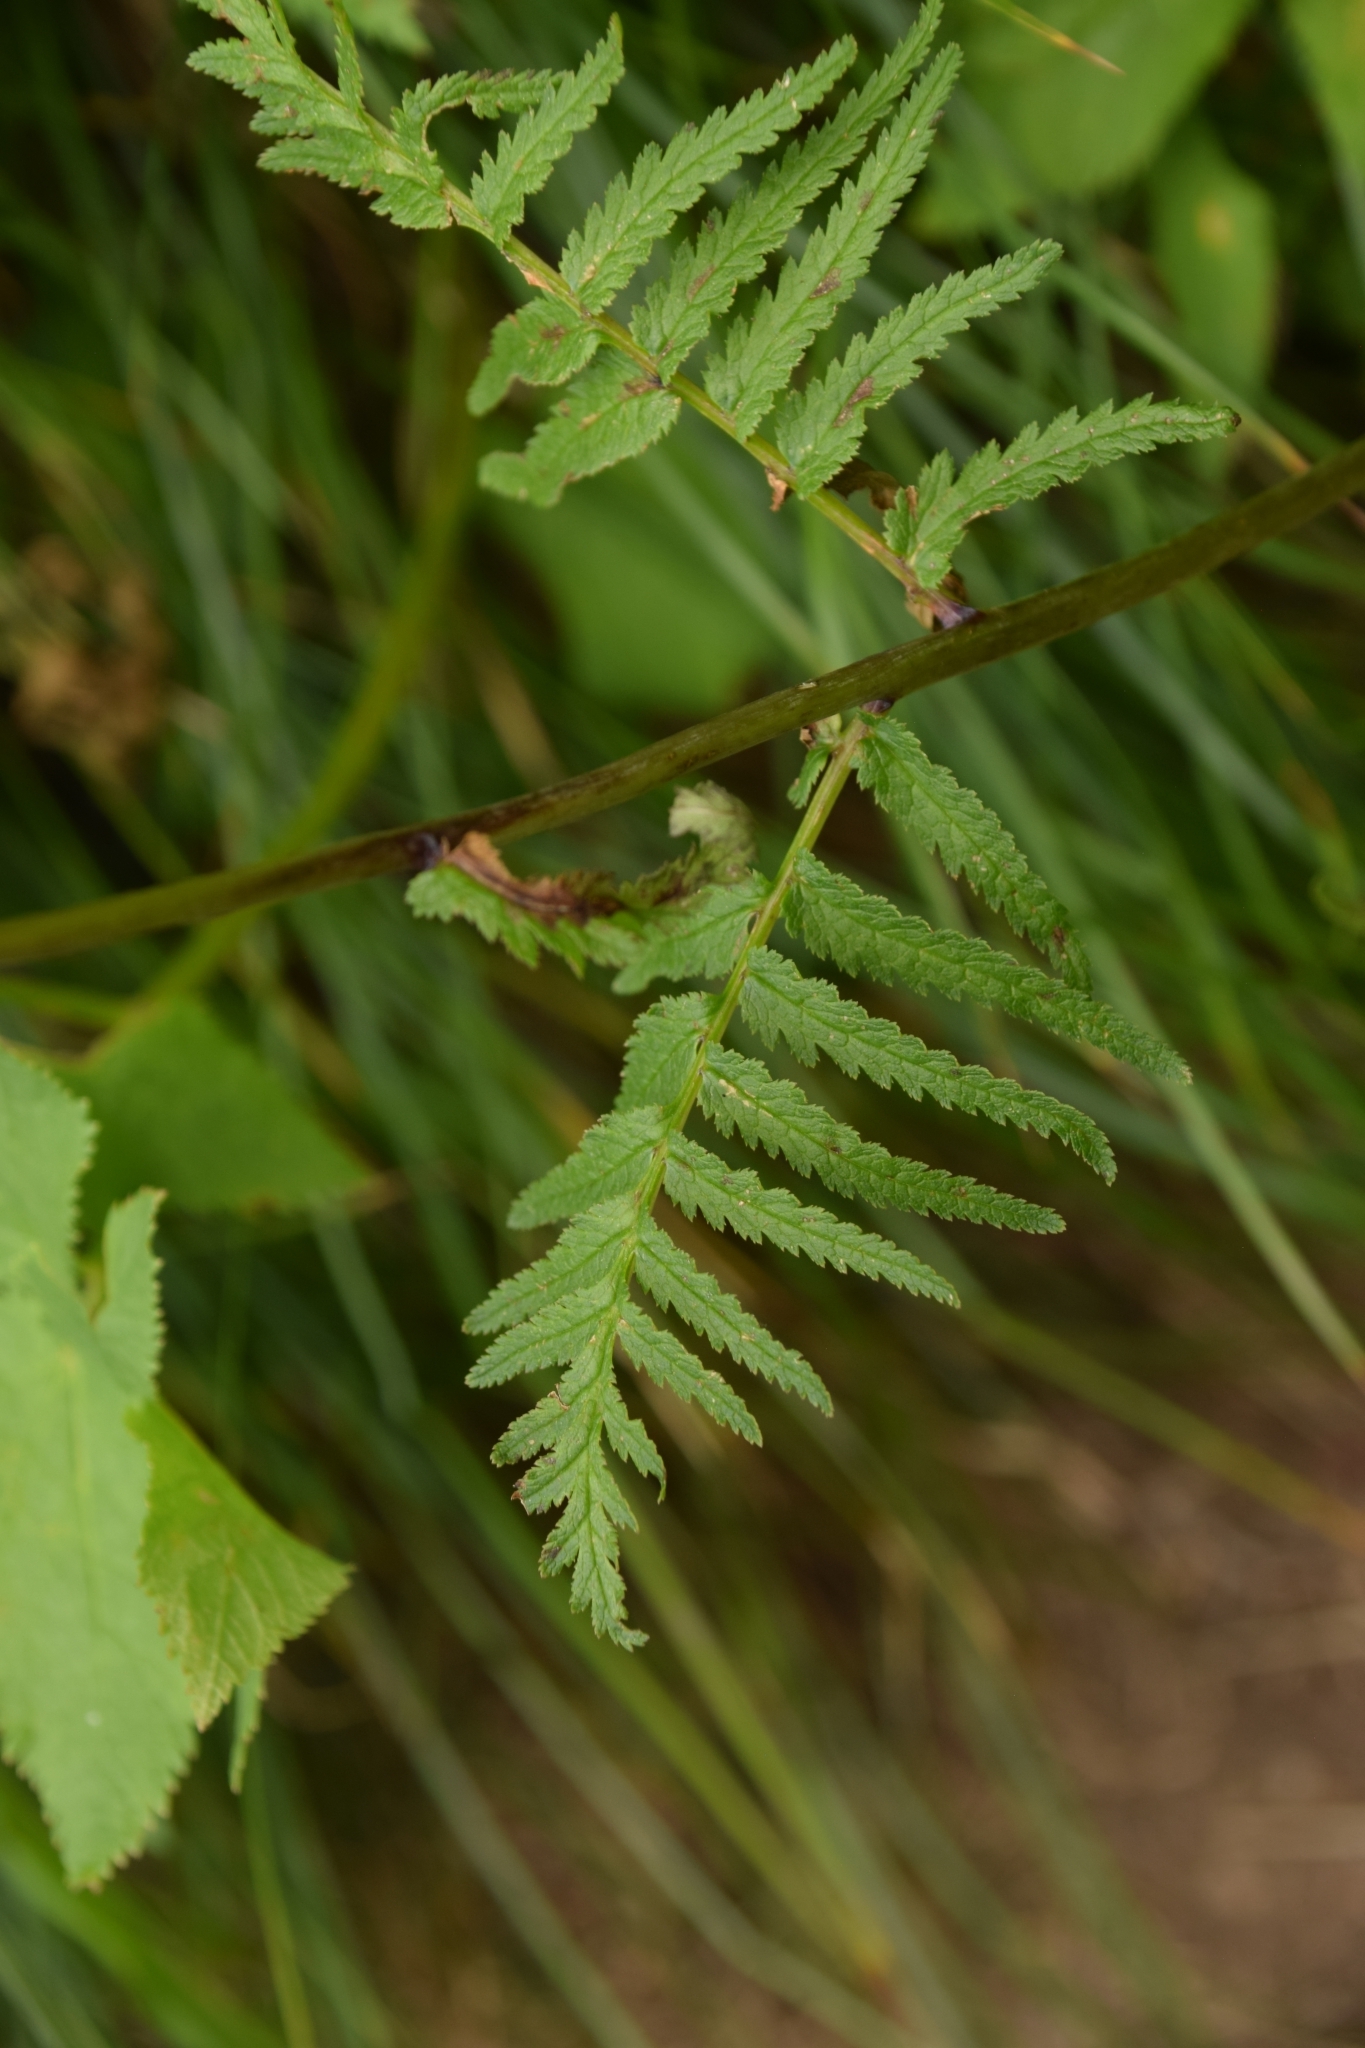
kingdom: Plantae
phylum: Tracheophyta
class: Magnoliopsida
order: Lamiales
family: Orobanchaceae
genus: Pedicularis
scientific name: Pedicularis bracteosa
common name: Bracted lousewort
